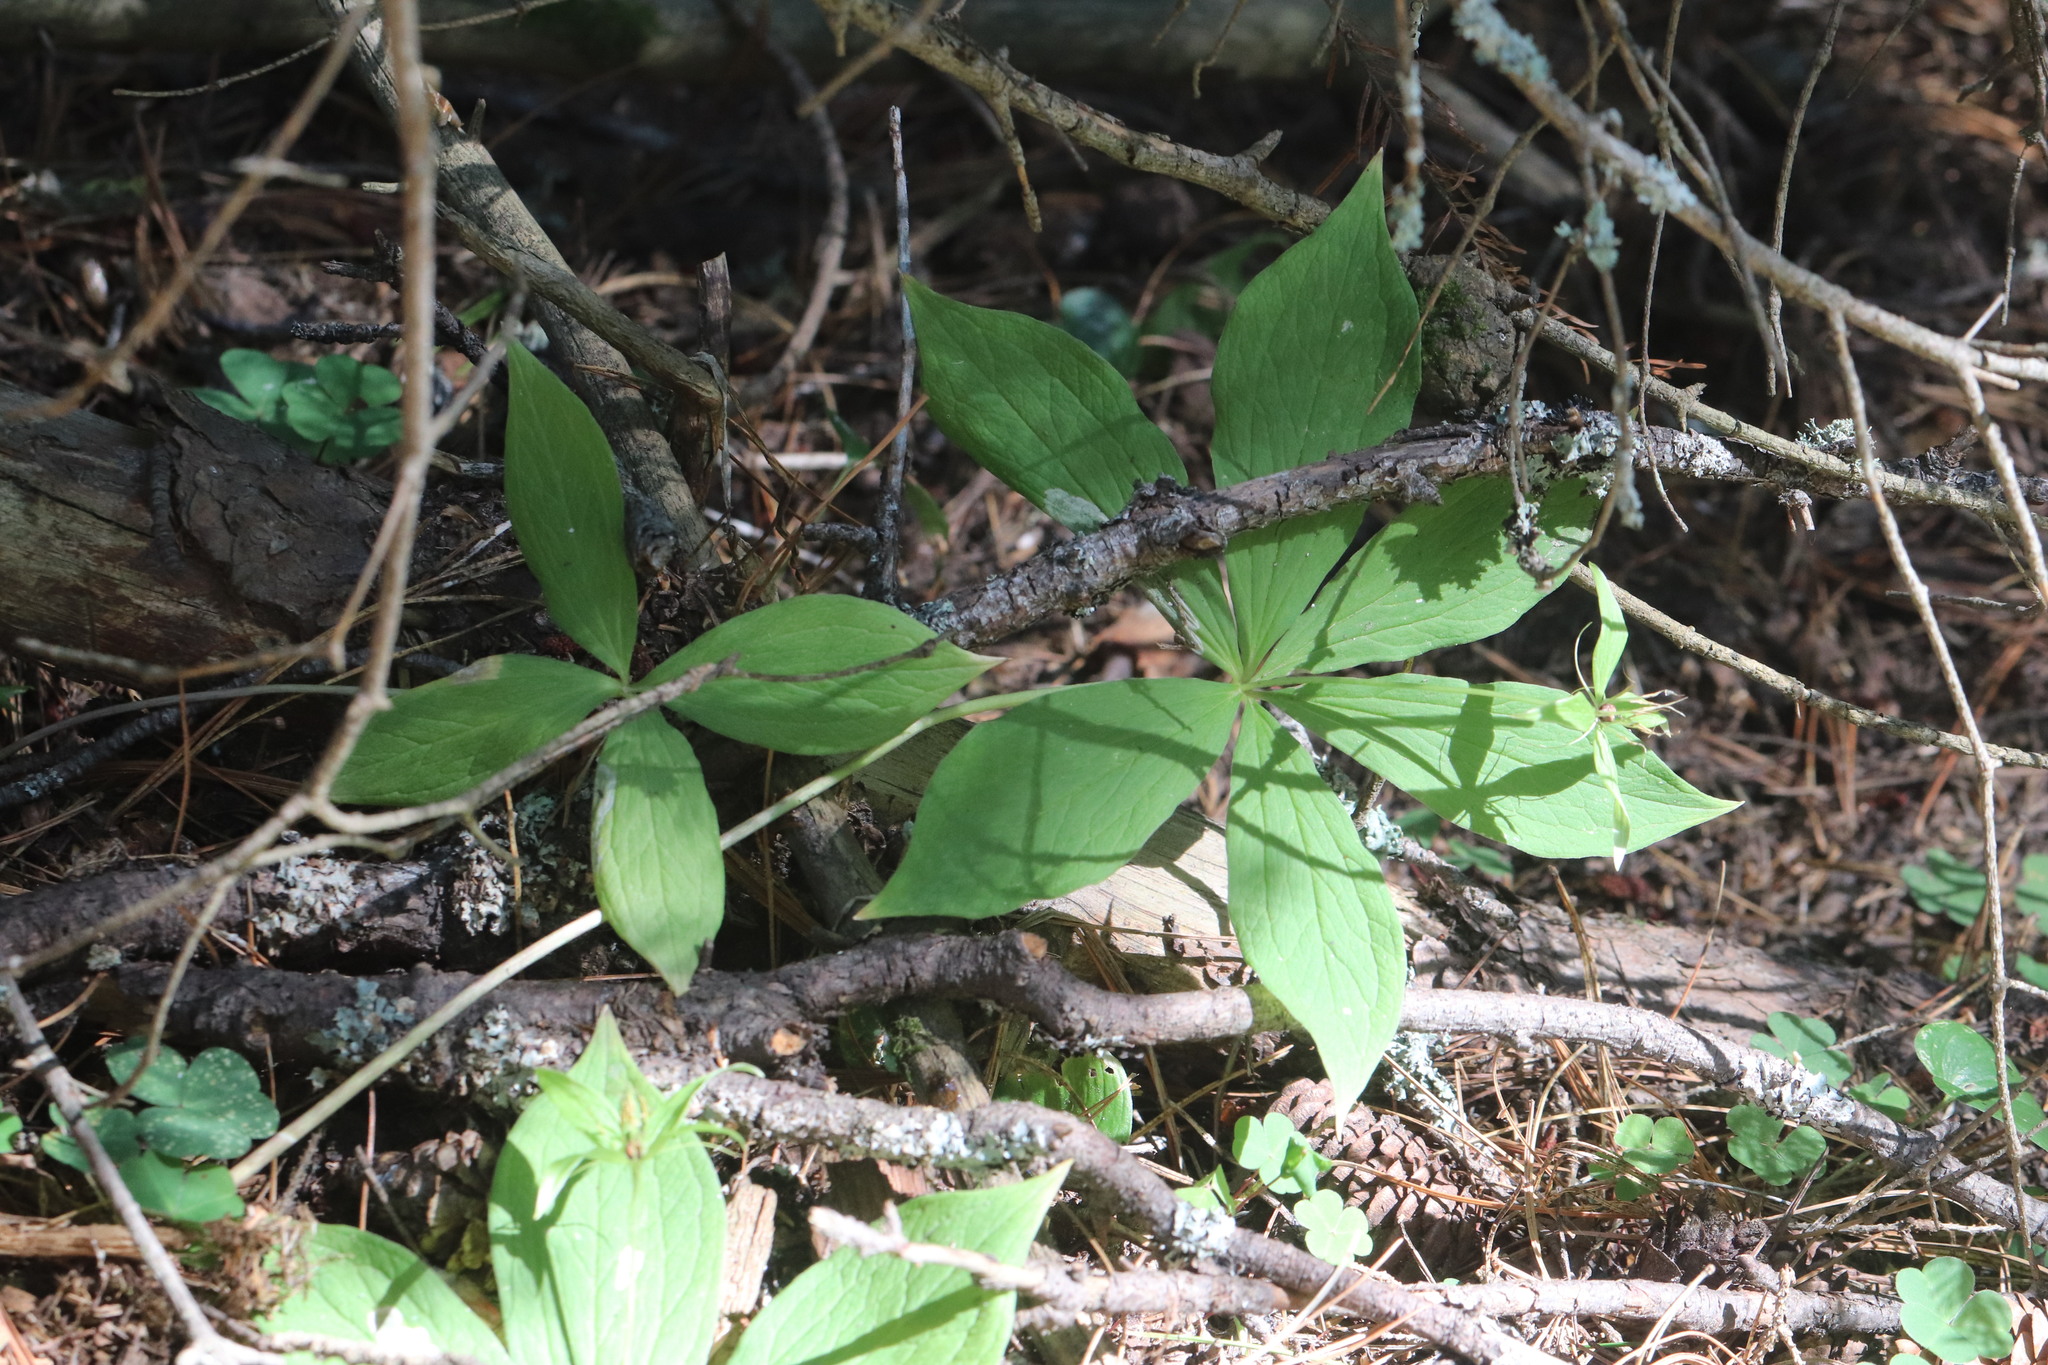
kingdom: Plantae
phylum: Tracheophyta
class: Liliopsida
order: Liliales
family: Melanthiaceae
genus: Paris
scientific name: Paris quadrifolia
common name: Herb-paris
